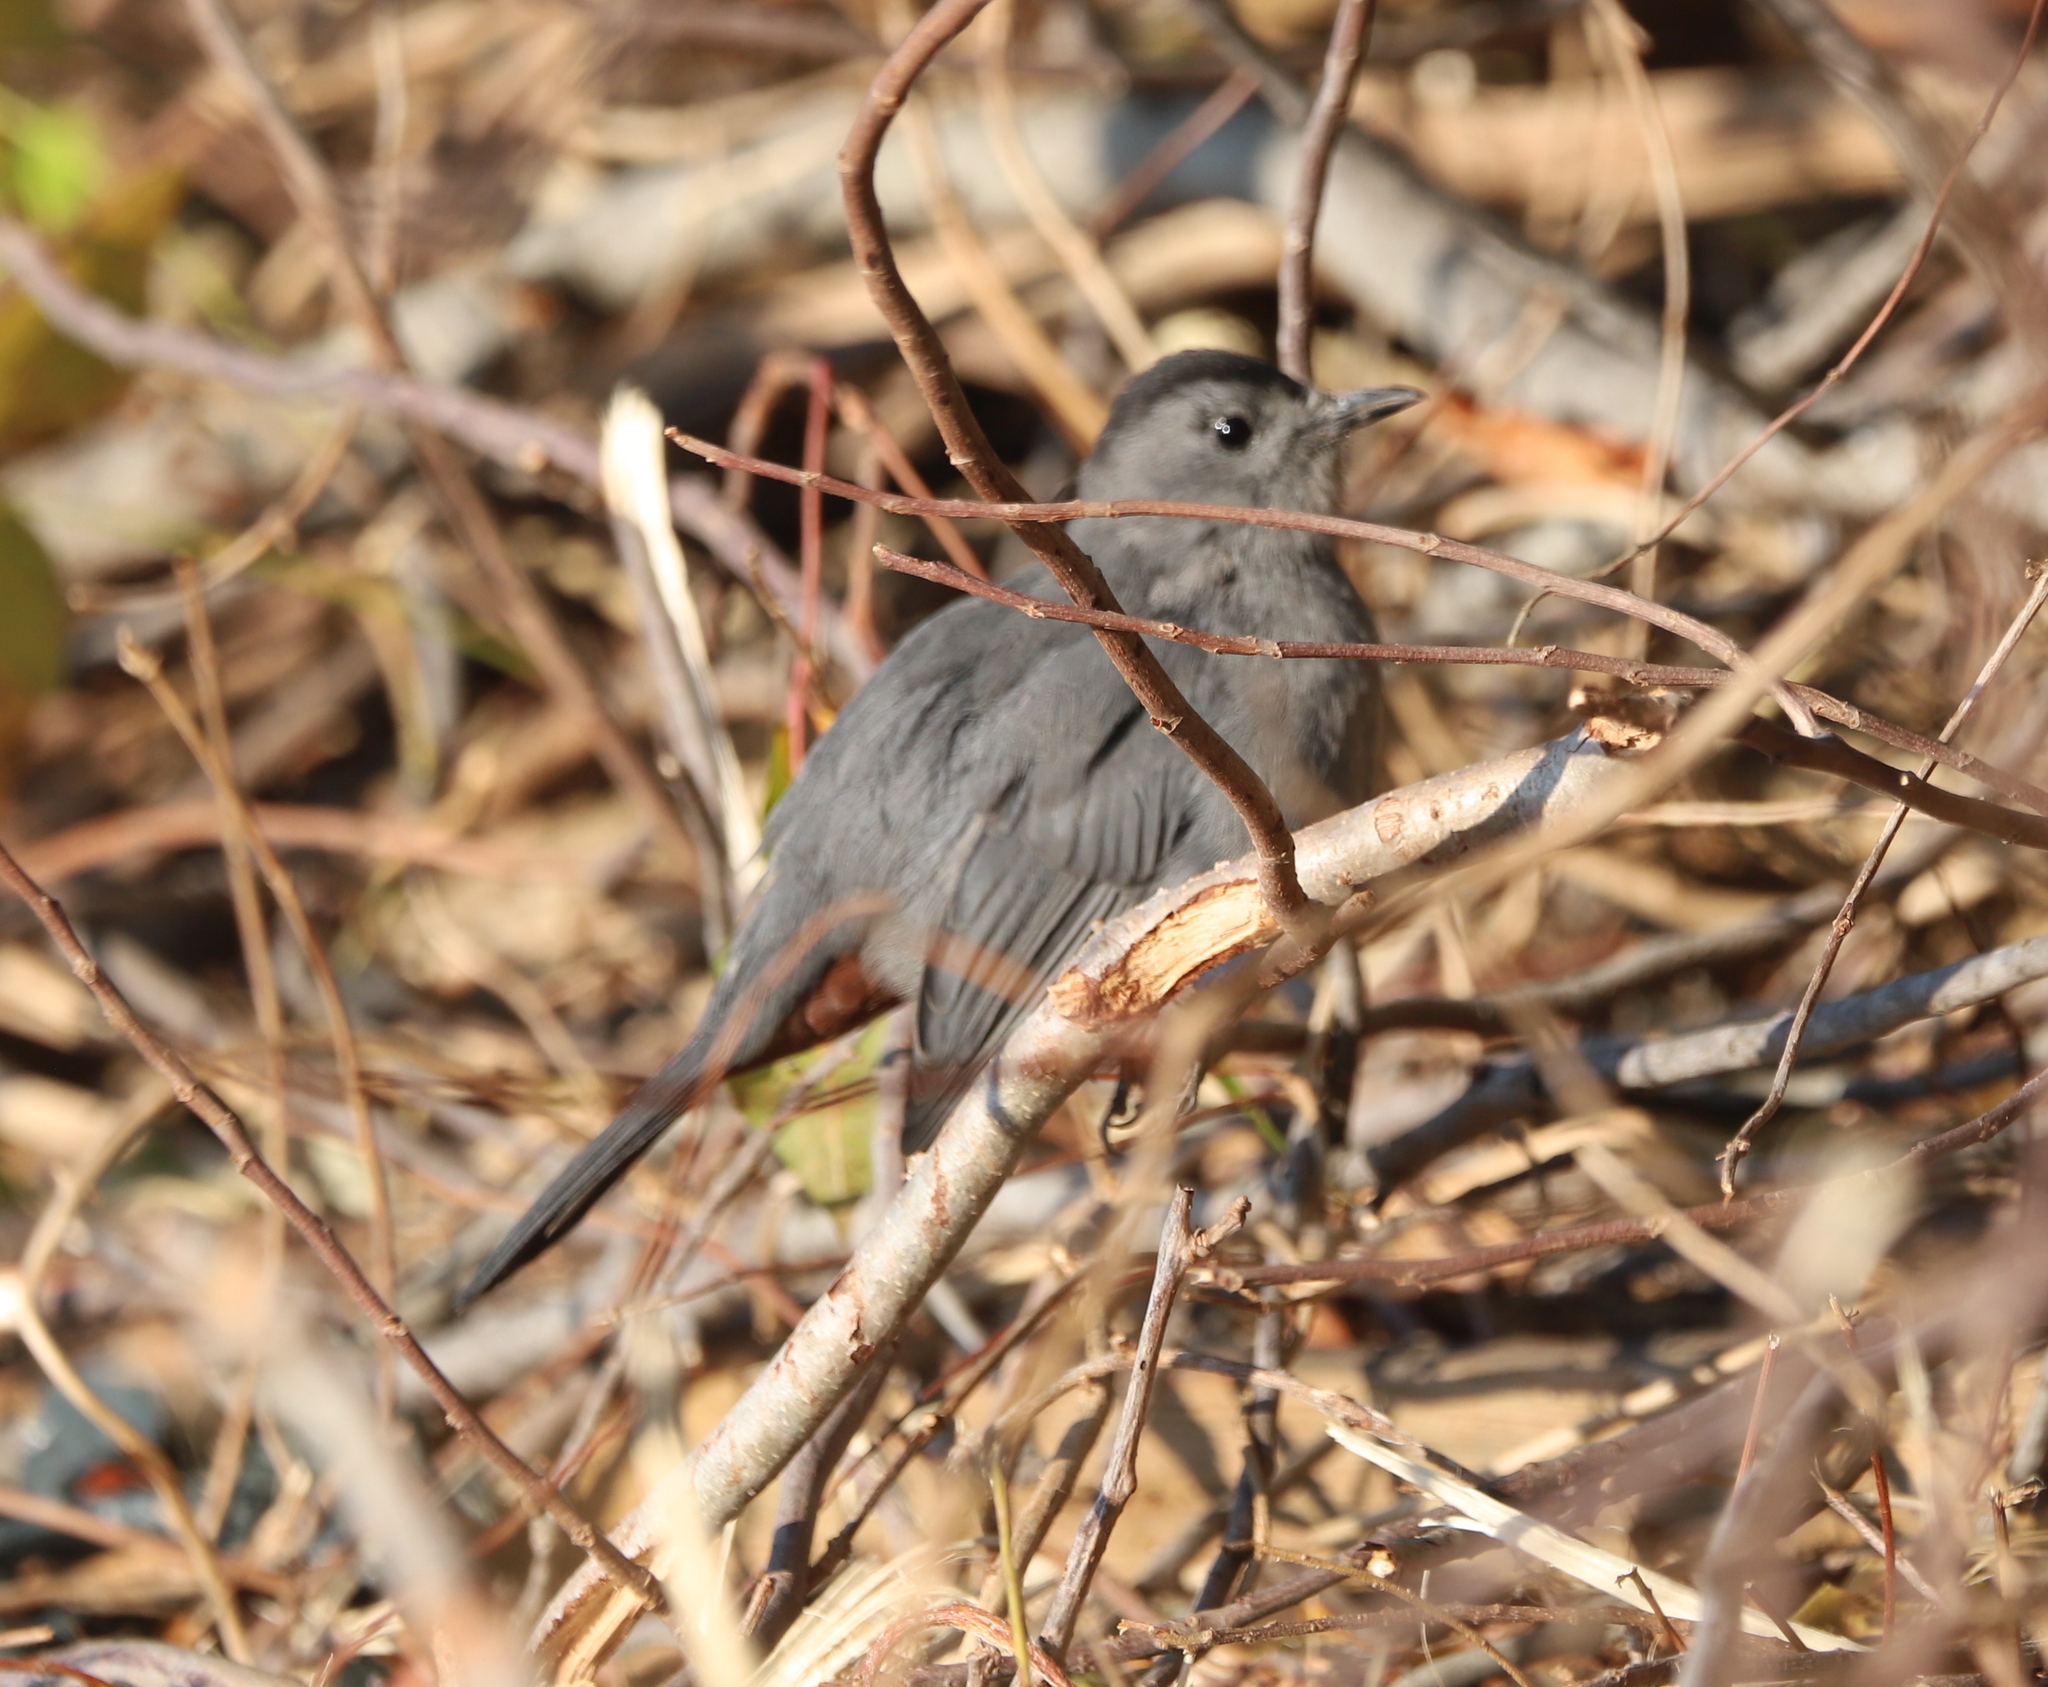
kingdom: Animalia
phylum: Chordata
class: Aves
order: Passeriformes
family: Mimidae
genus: Dumetella
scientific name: Dumetella carolinensis
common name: Gray catbird
